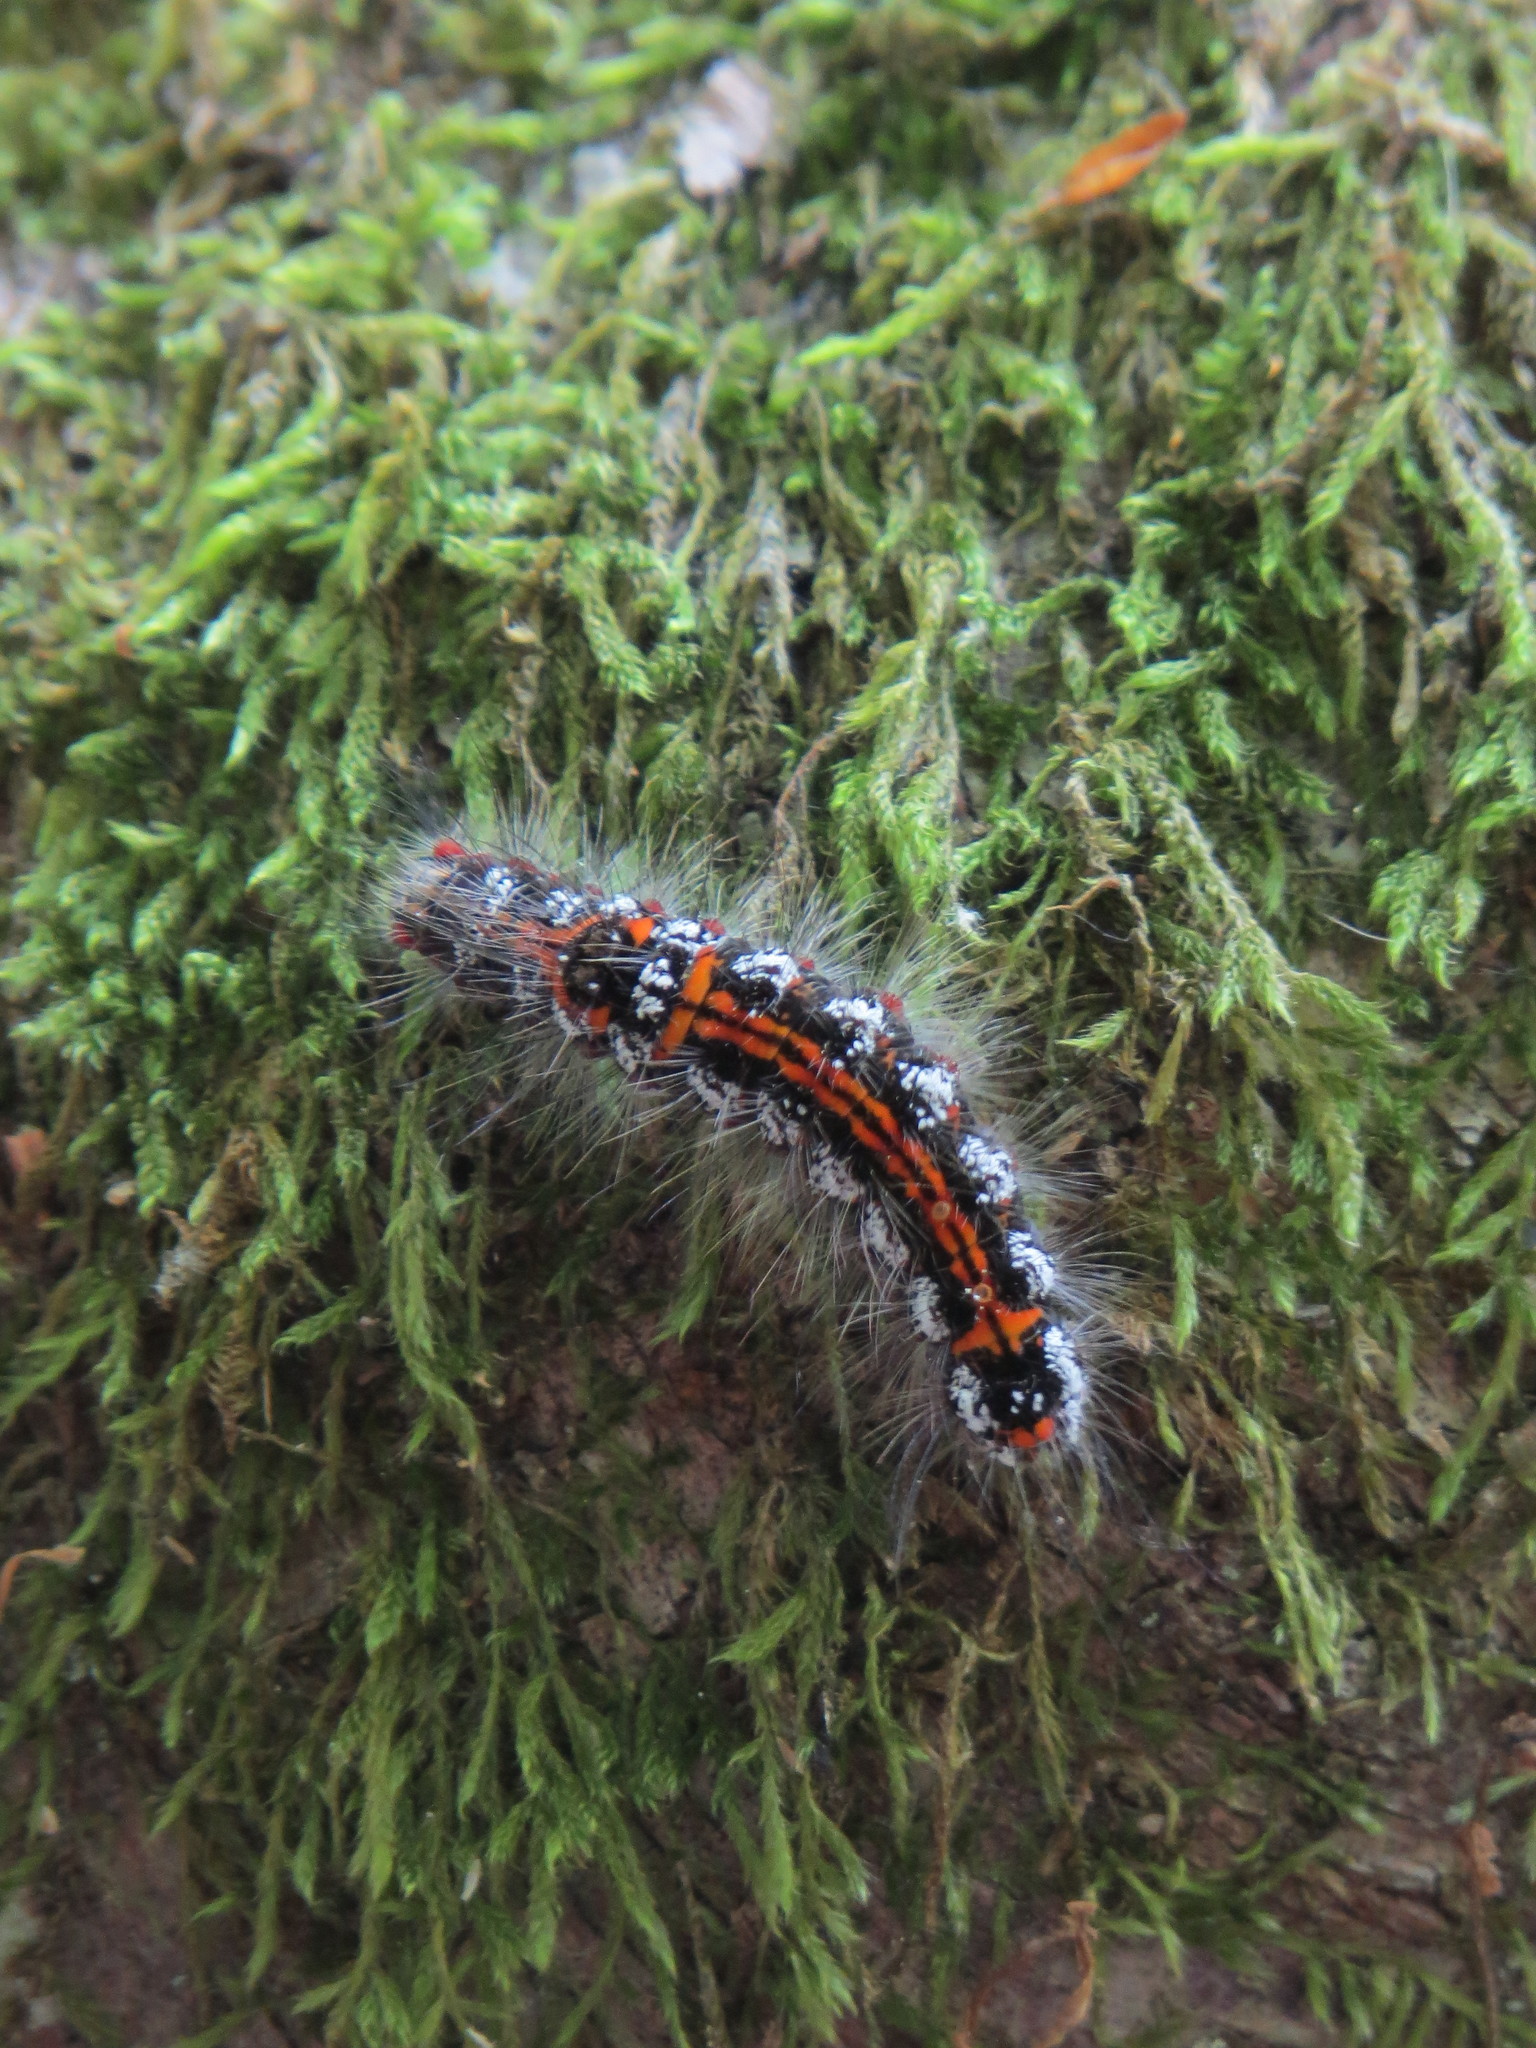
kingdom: Animalia
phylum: Arthropoda
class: Insecta
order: Lepidoptera
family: Erebidae
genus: Sphrageidus
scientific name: Sphrageidus similis
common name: Yellow-tail
